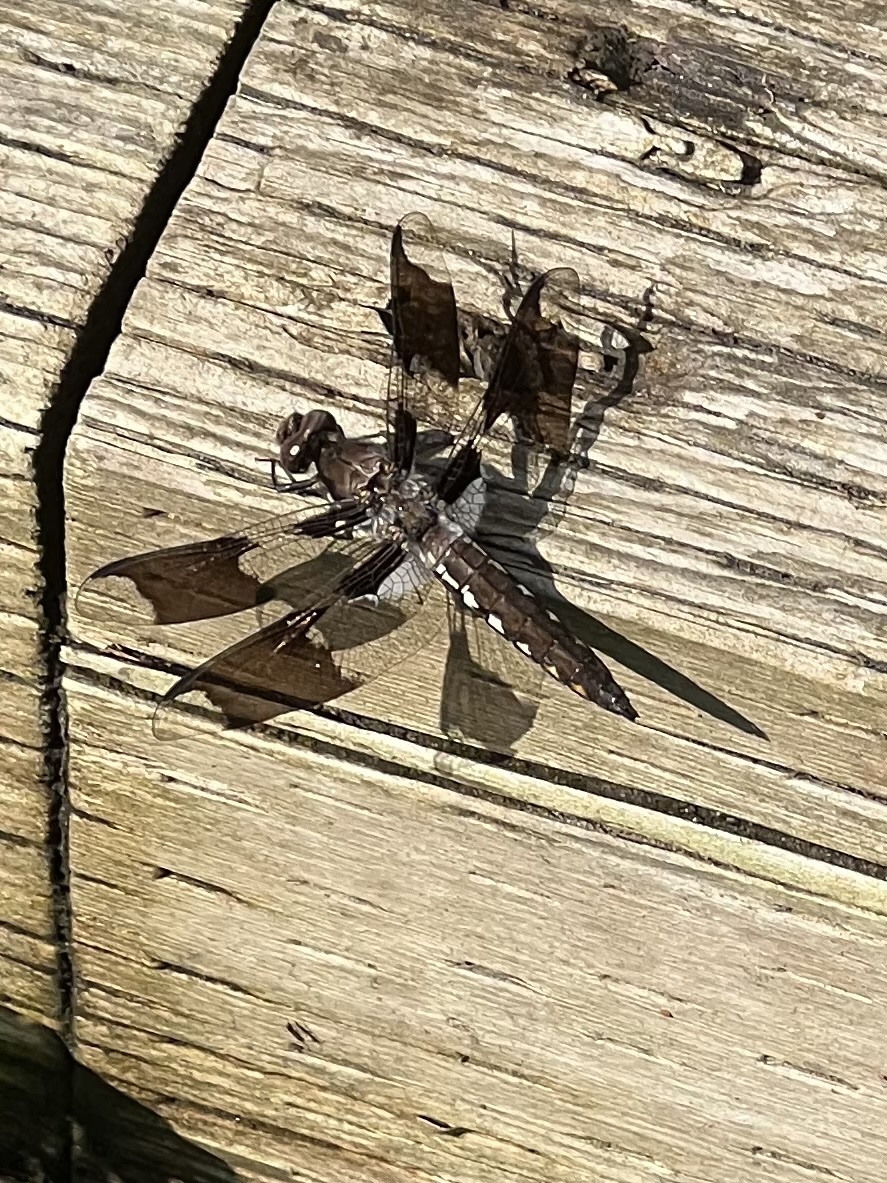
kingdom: Animalia
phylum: Arthropoda
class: Insecta
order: Odonata
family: Libellulidae
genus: Plathemis
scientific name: Plathemis lydia
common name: Common whitetail
